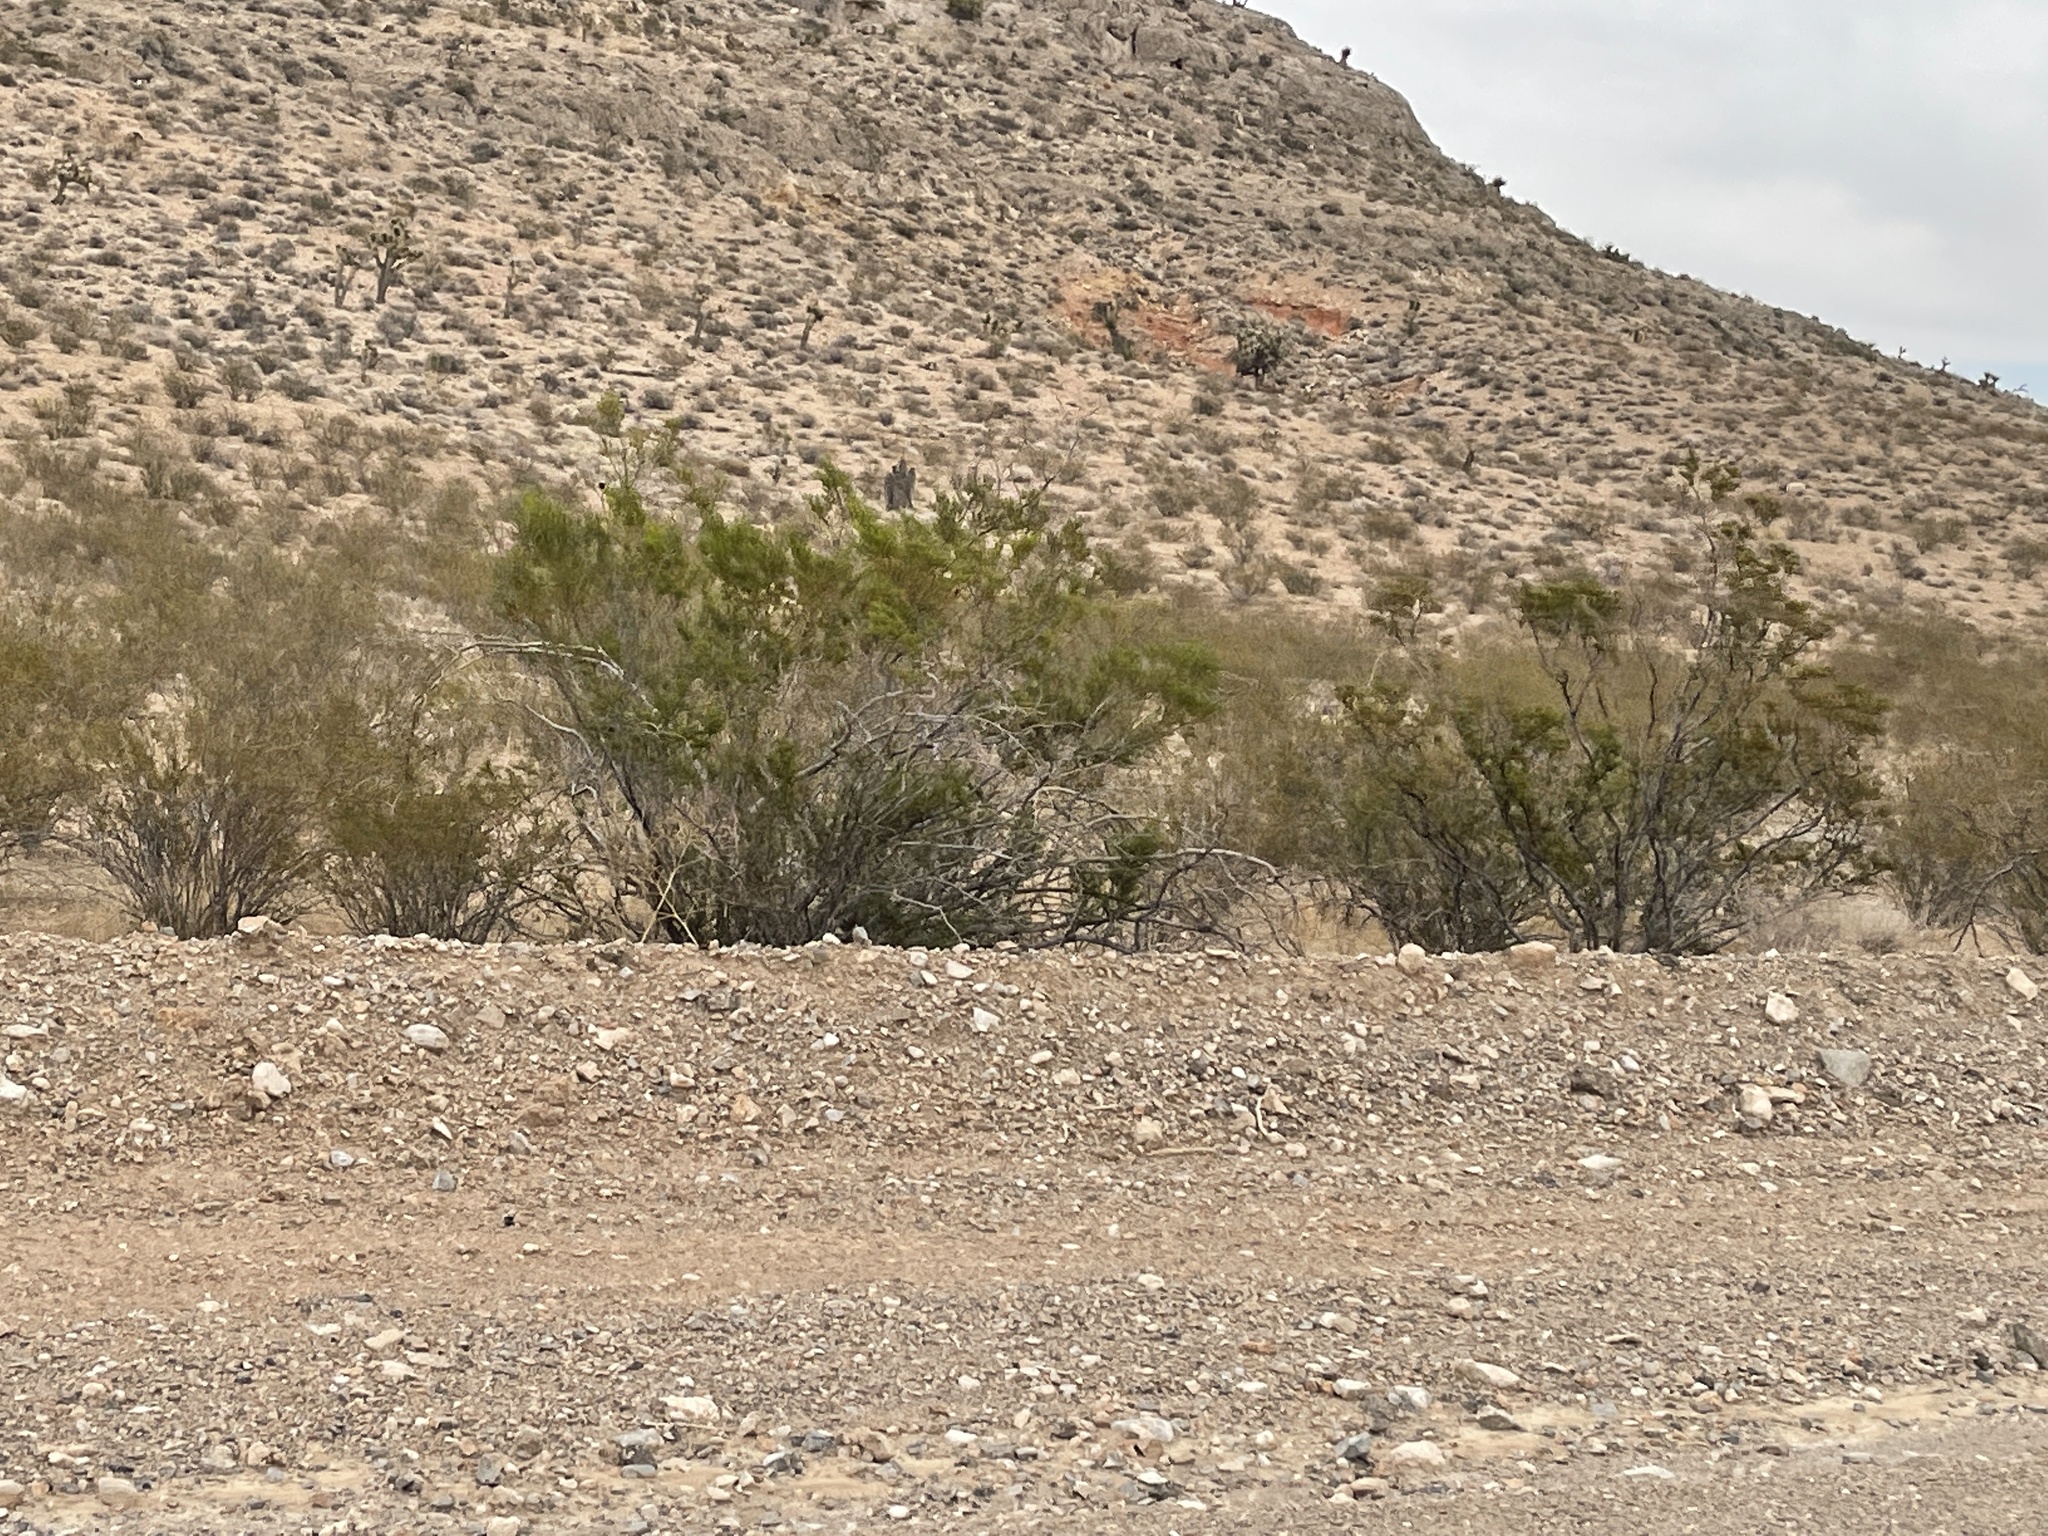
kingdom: Plantae
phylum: Tracheophyta
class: Magnoliopsida
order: Zygophyllales
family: Zygophyllaceae
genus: Larrea
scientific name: Larrea tridentata
